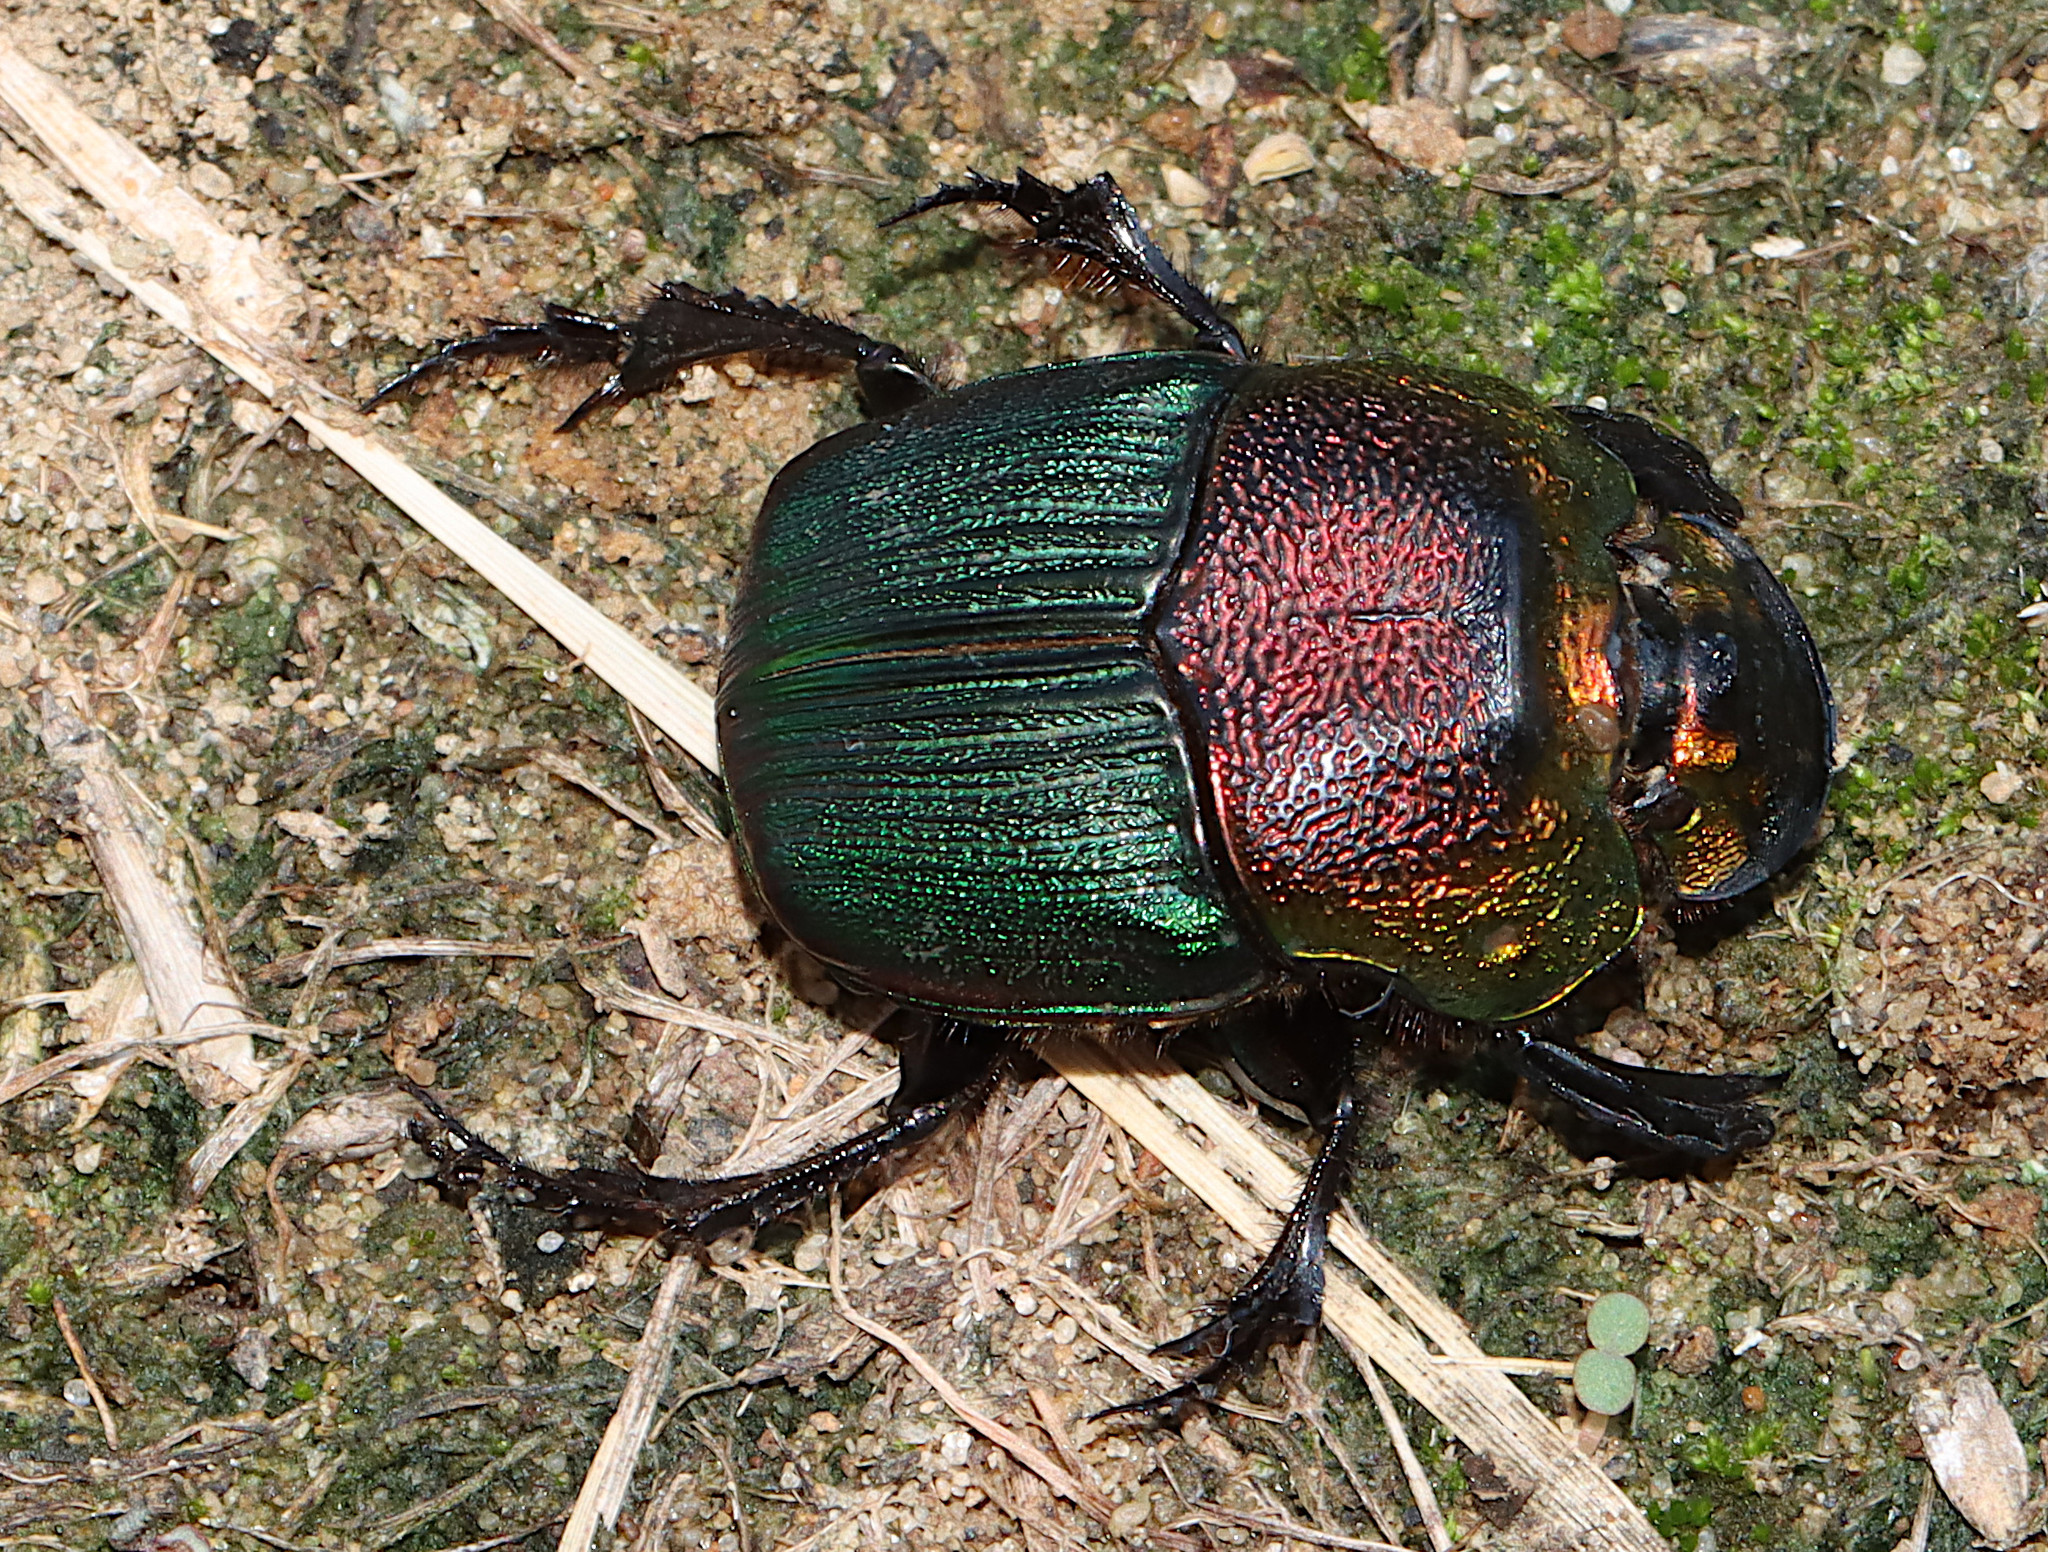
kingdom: Animalia
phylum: Arthropoda
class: Insecta
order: Coleoptera
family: Scarabaeidae
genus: Phanaeus
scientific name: Phanaeus vindex
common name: Rainbow scarab
